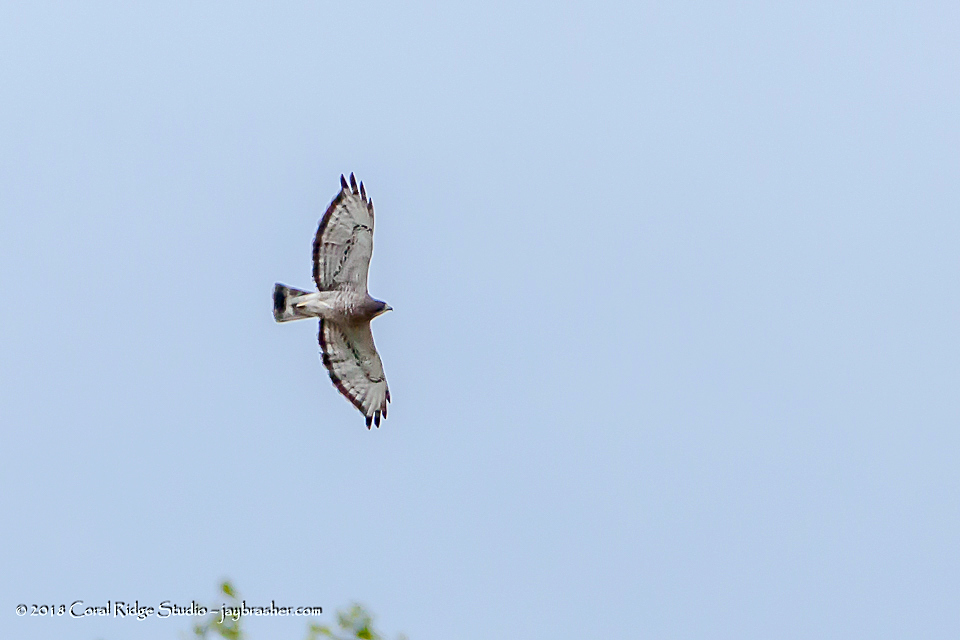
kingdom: Animalia
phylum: Chordata
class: Aves
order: Accipitriformes
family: Accipitridae
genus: Buteo
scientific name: Buteo platypterus
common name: Broad-winged hawk
